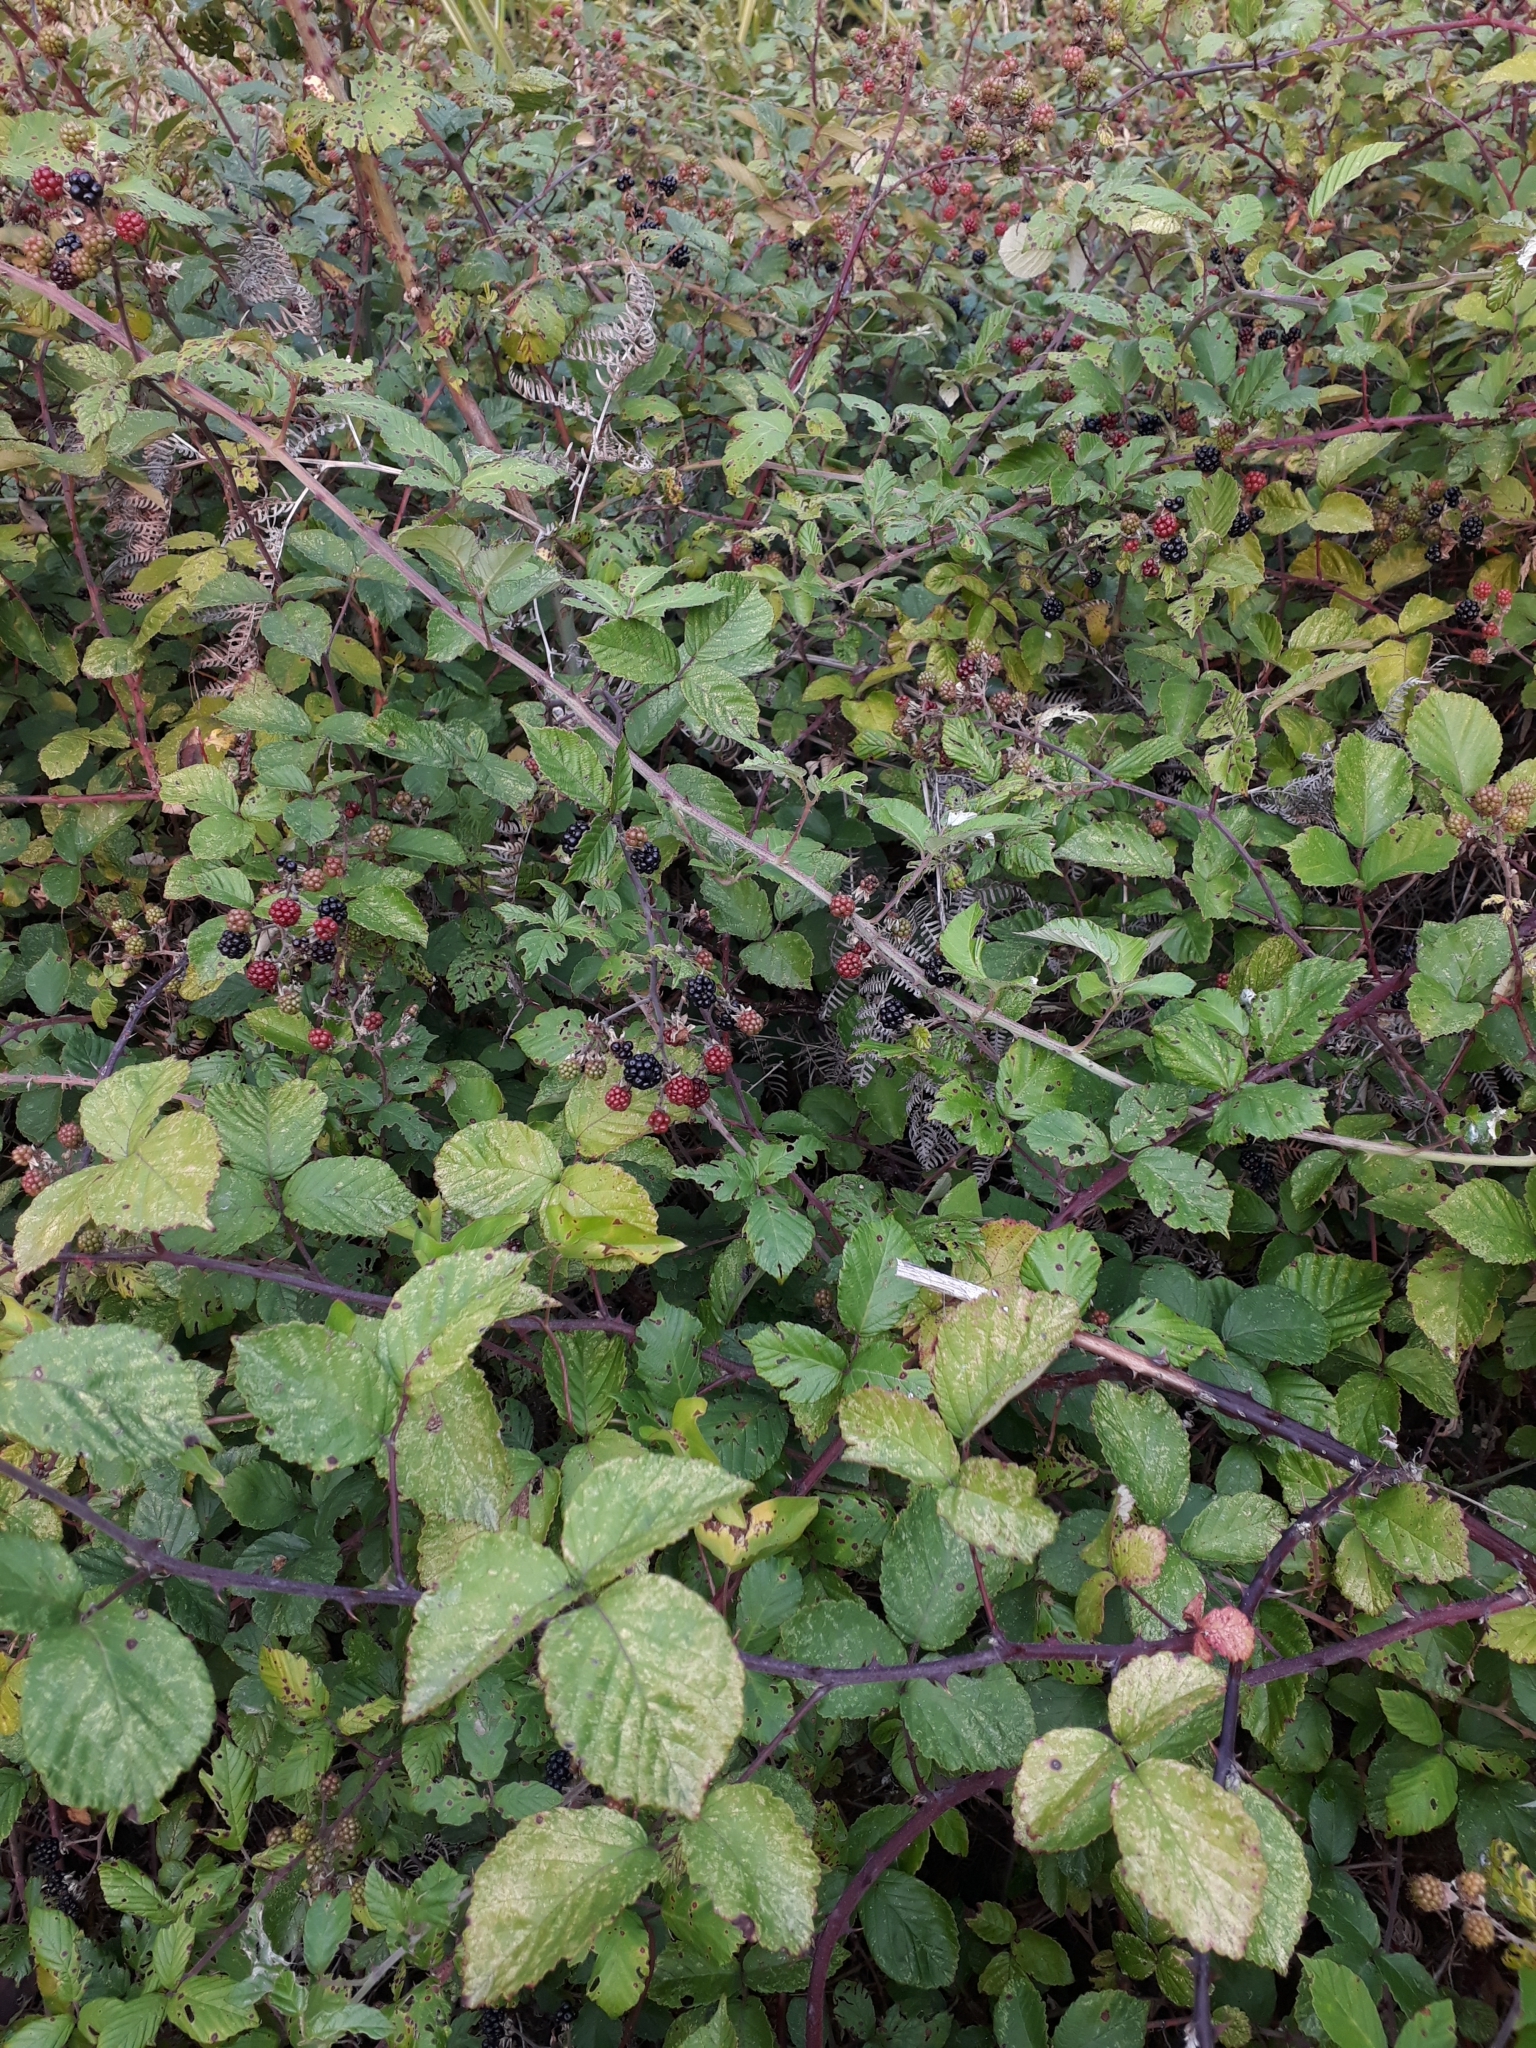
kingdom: Plantae
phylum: Tracheophyta
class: Magnoliopsida
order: Rosales
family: Rosaceae
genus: Rubus
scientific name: Rubus ulmifolius
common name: Elmleaf blackberry
